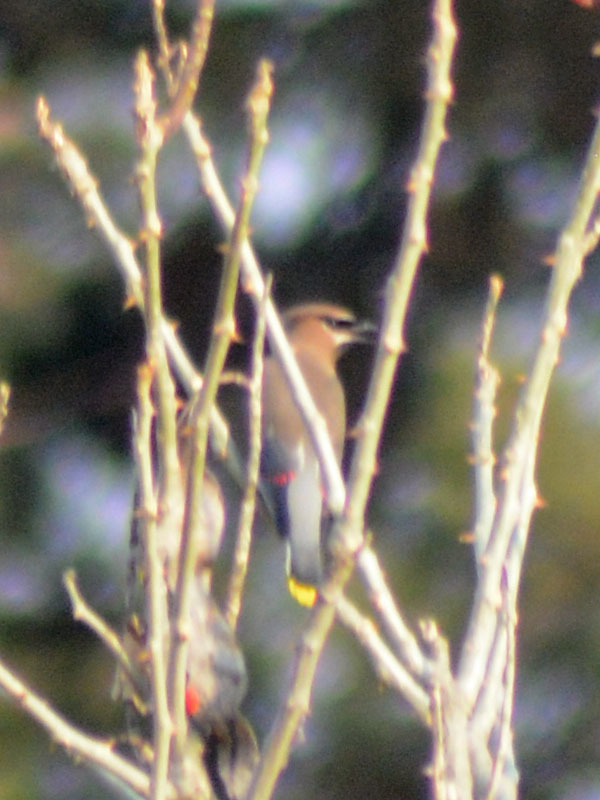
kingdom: Animalia
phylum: Chordata
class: Aves
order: Passeriformes
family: Bombycillidae
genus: Bombycilla
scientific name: Bombycilla cedrorum
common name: Cedar waxwing
